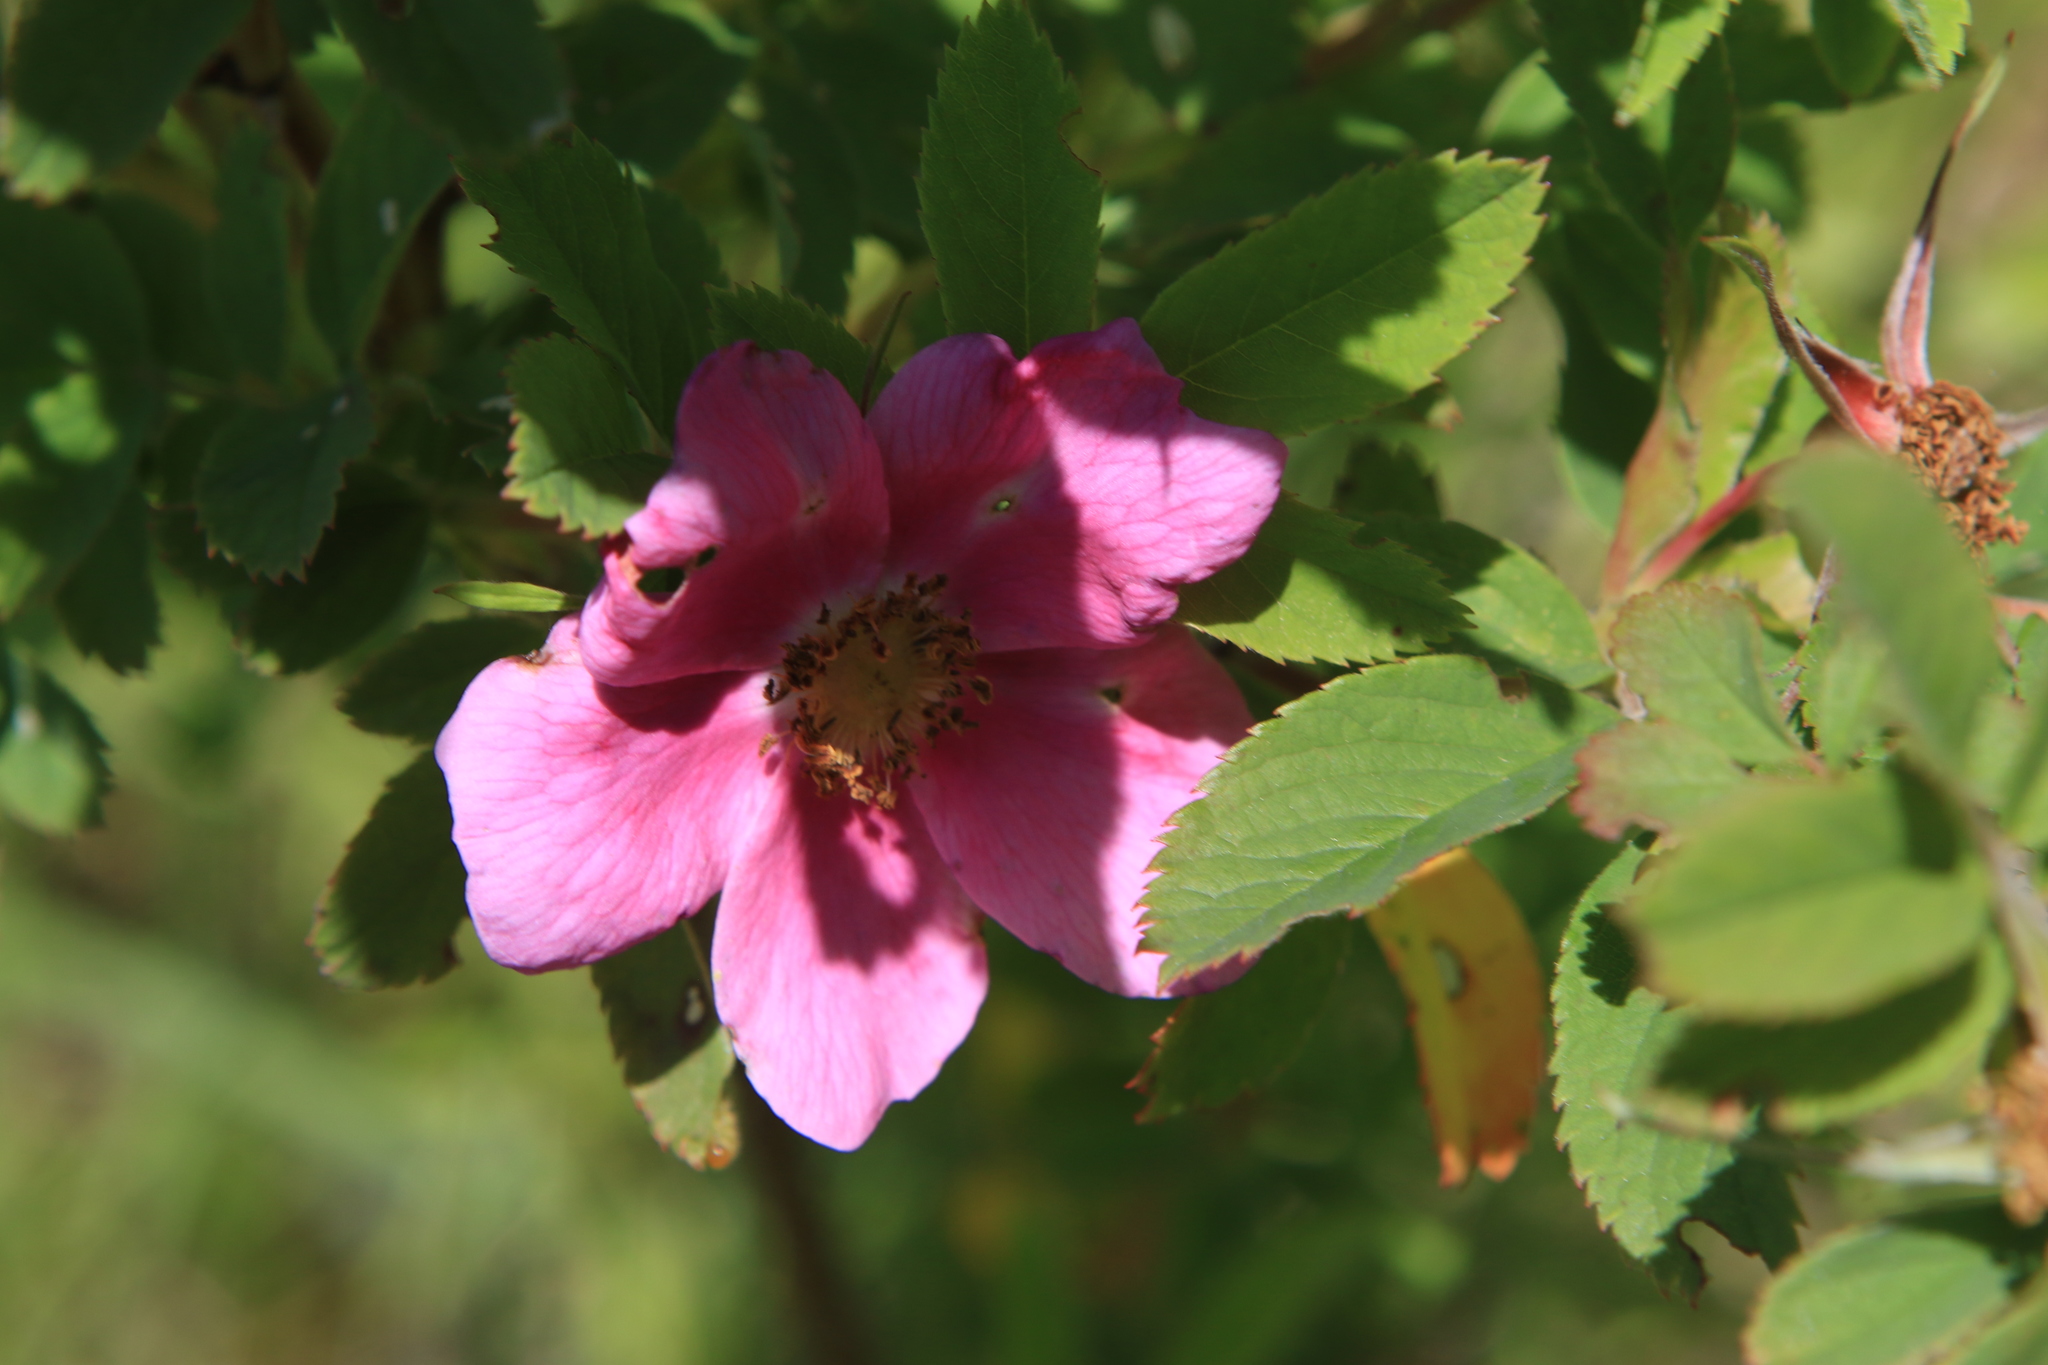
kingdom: Plantae
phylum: Tracheophyta
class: Magnoliopsida
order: Rosales
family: Rosaceae
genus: Rosa
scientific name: Rosa
